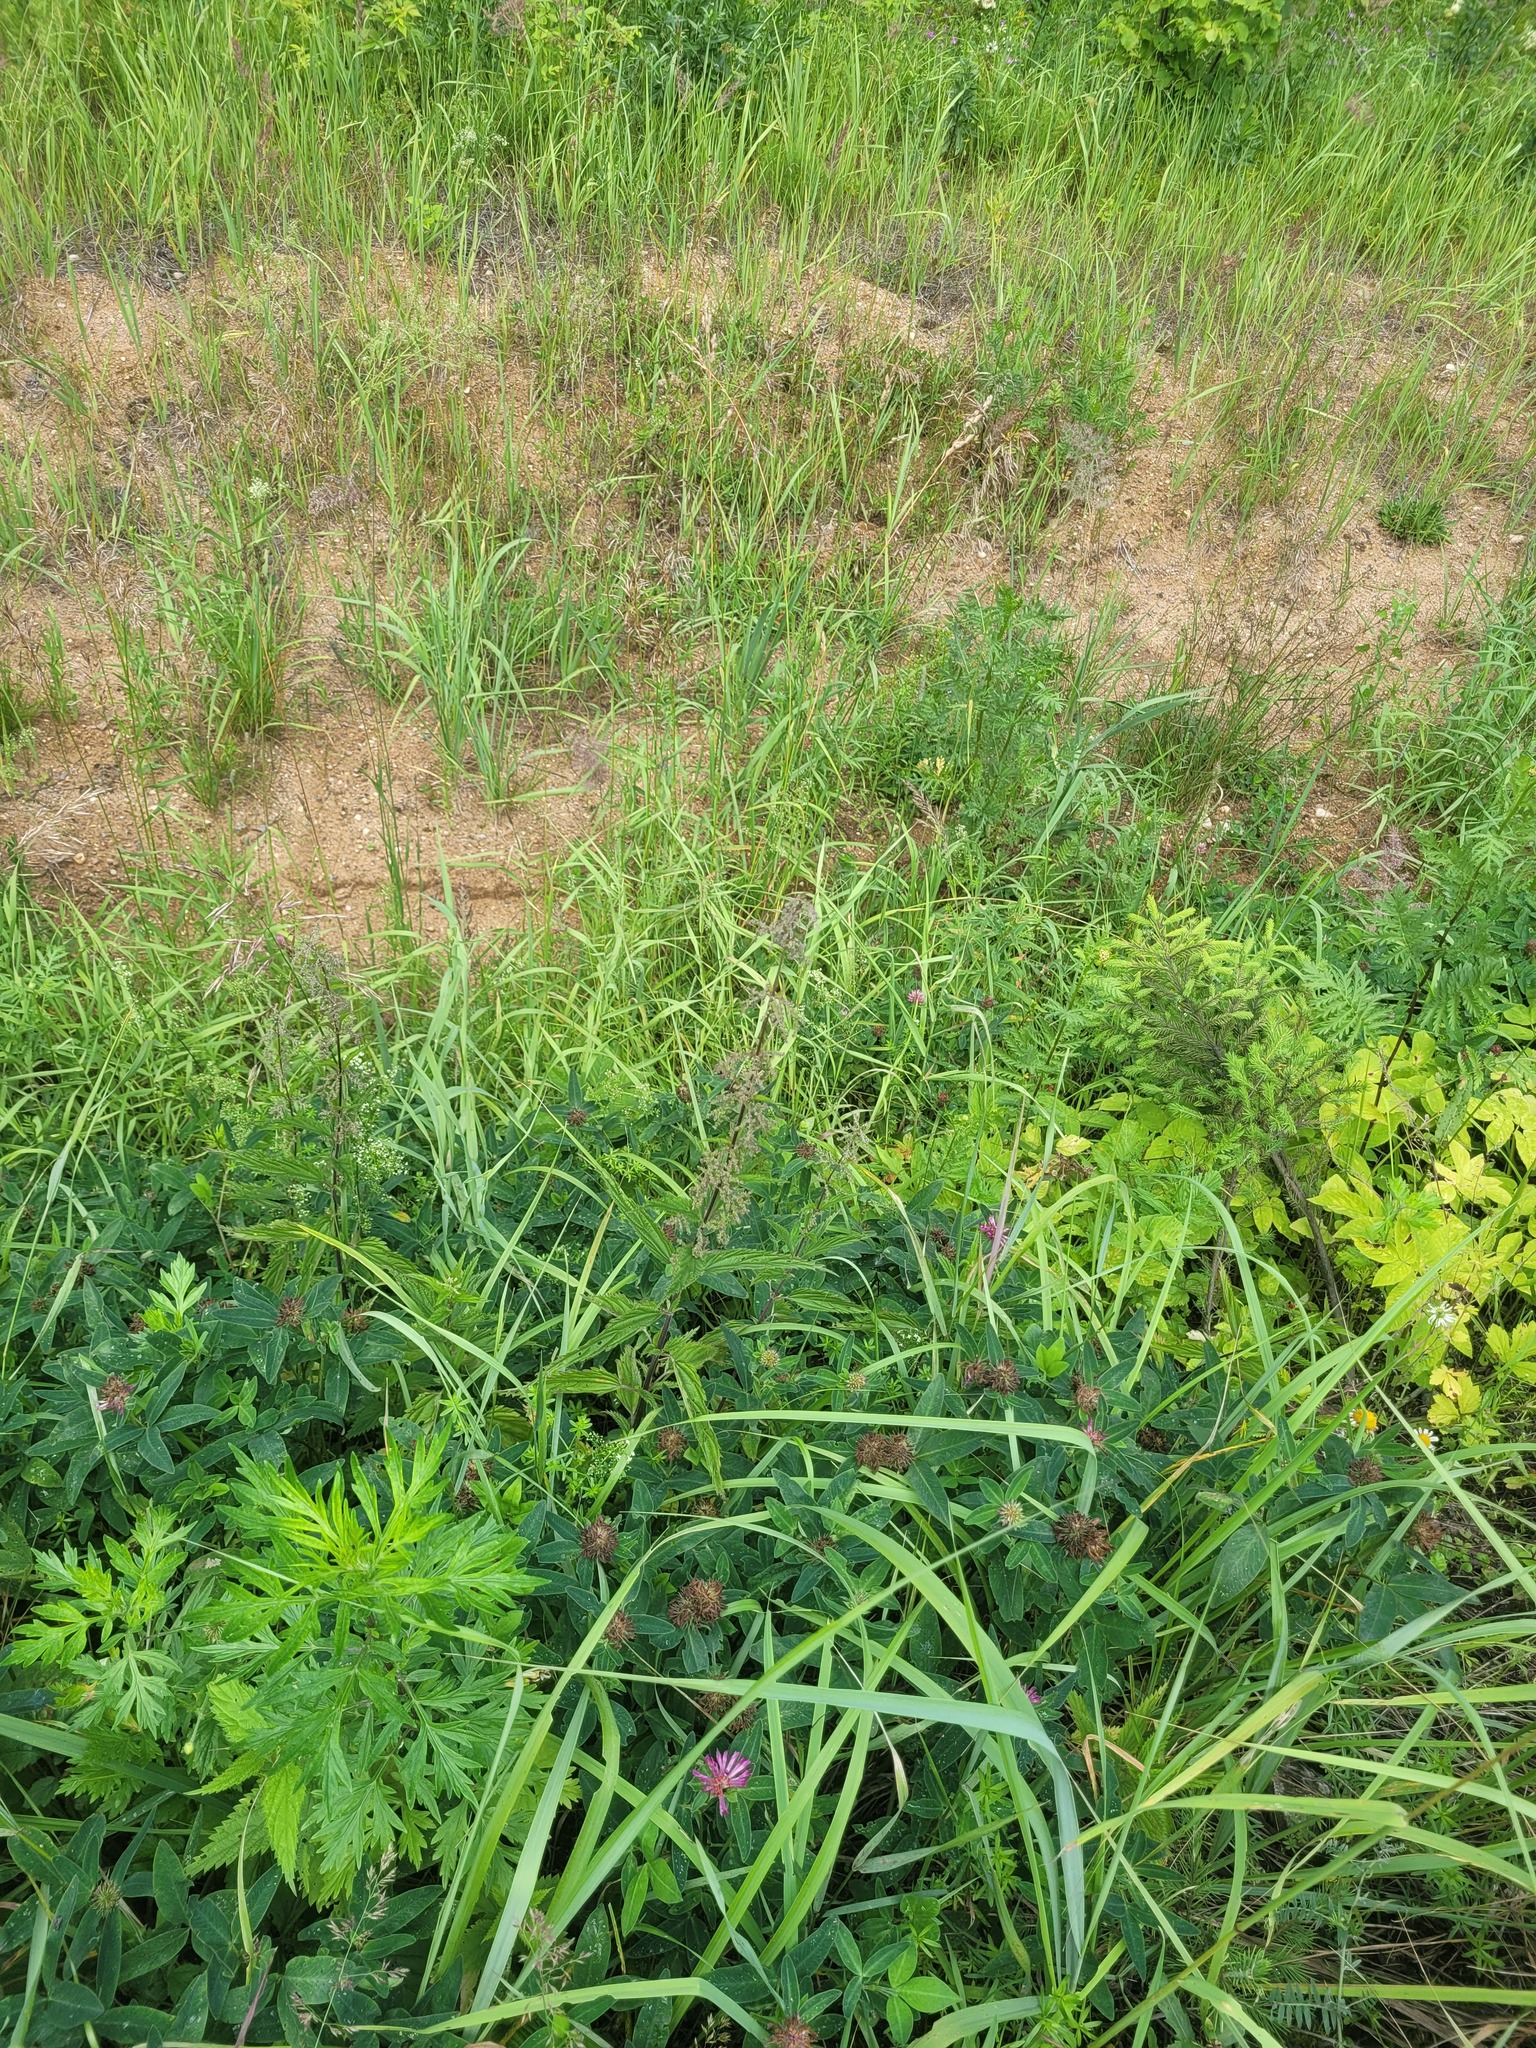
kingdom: Plantae
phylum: Tracheophyta
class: Magnoliopsida
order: Rosales
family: Urticaceae
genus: Urtica
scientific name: Urtica dioica
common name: Common nettle
